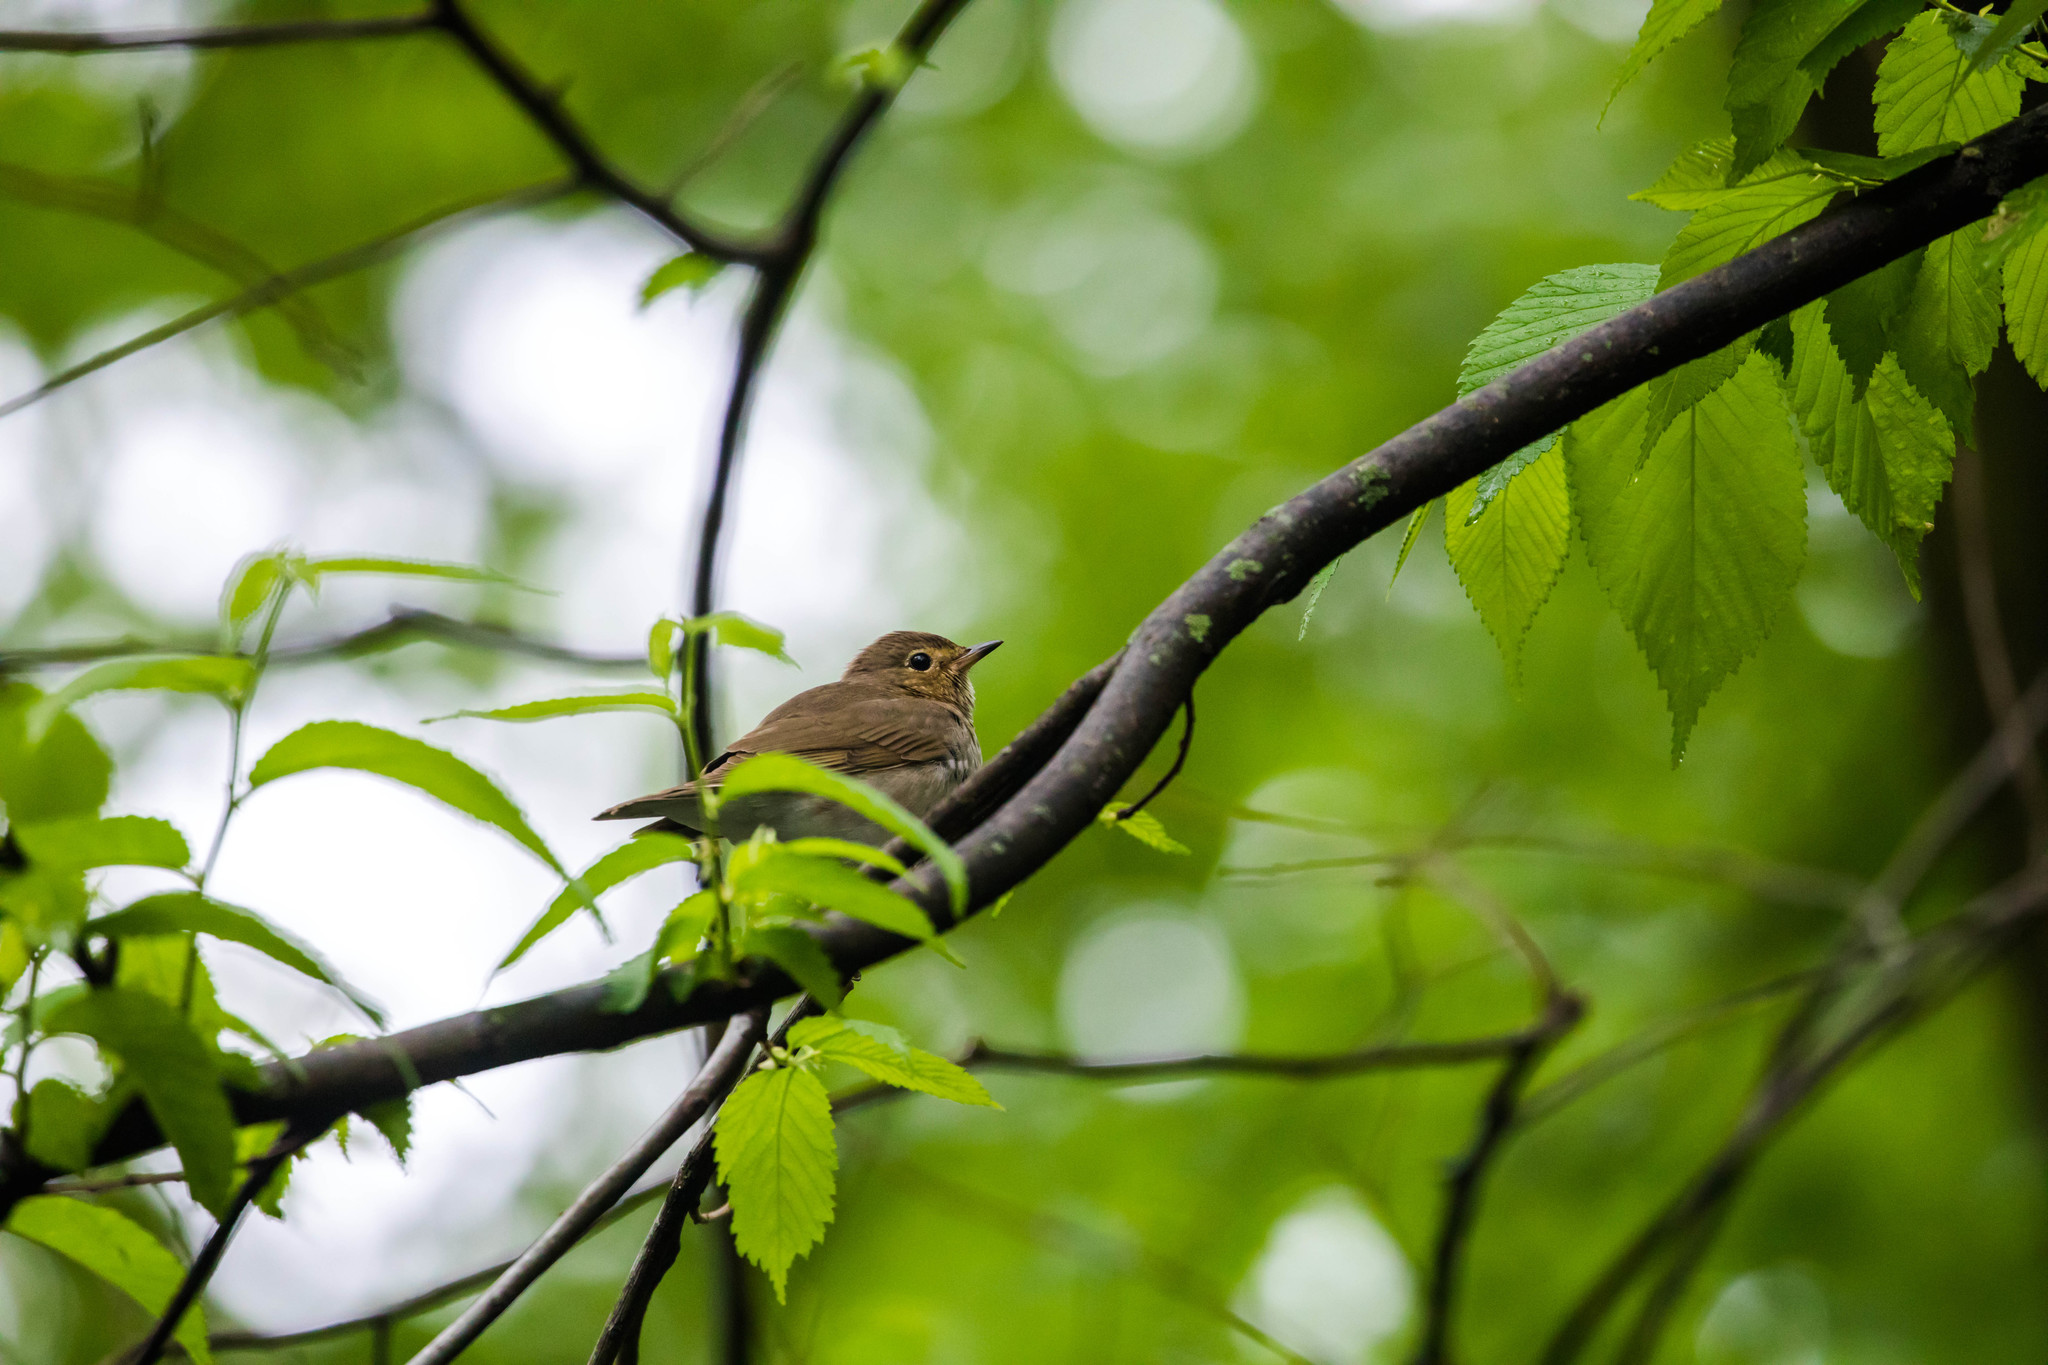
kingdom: Animalia
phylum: Chordata
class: Aves
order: Passeriformes
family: Turdidae
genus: Catharus
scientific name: Catharus ustulatus
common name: Swainson's thrush
